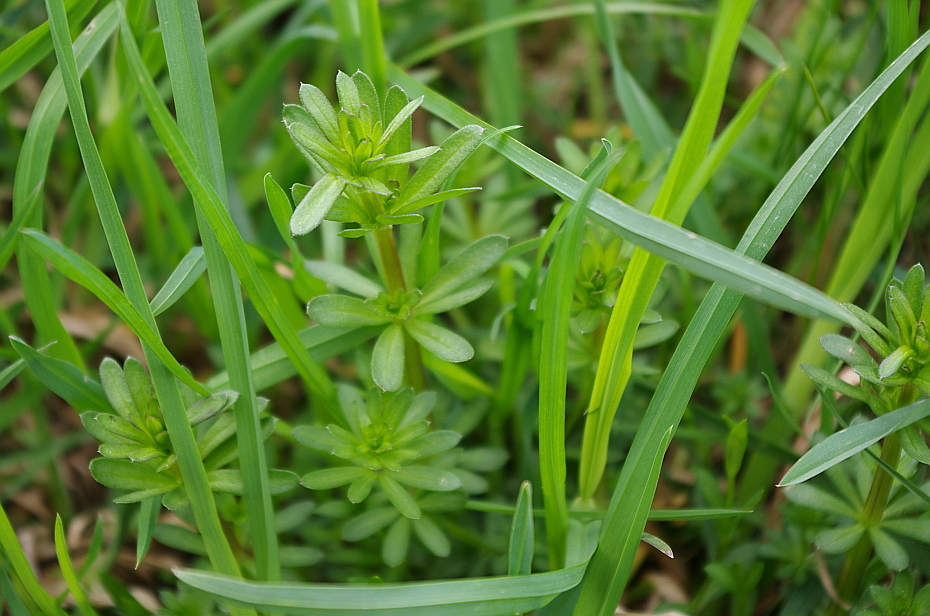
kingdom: Plantae
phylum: Tracheophyta
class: Magnoliopsida
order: Gentianales
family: Rubiaceae
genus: Galium
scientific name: Galium mollugo
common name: Hedge bedstraw
